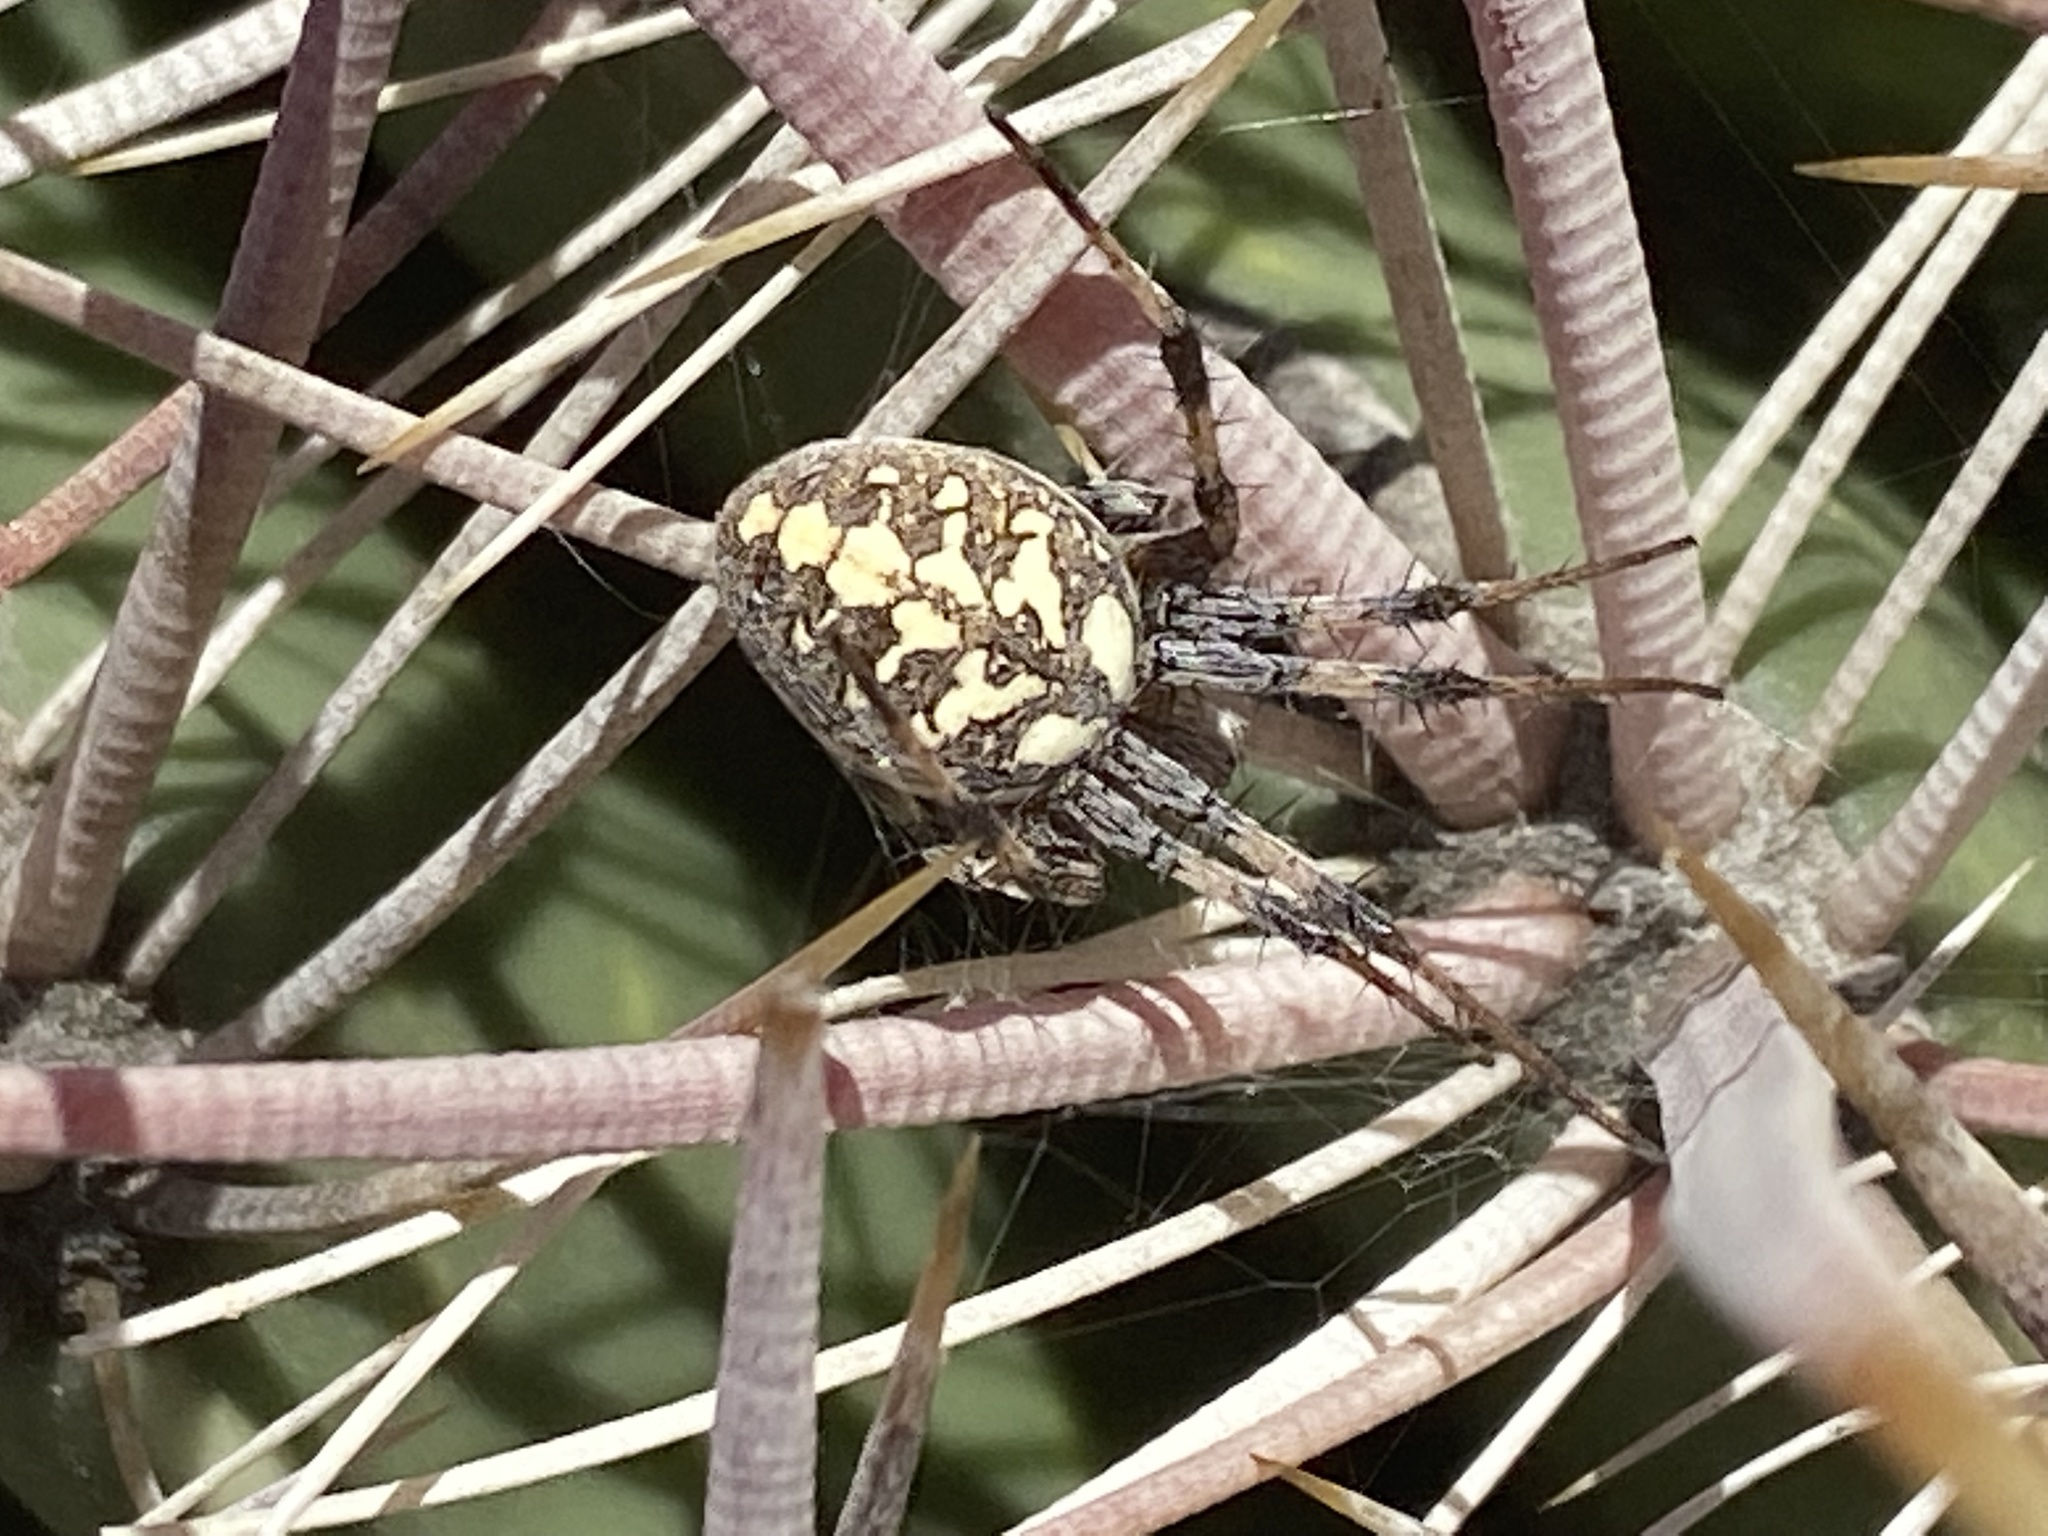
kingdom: Animalia
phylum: Arthropoda
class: Arachnida
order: Araneae
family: Araneidae
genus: Neoscona
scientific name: Neoscona oaxacensis
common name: Orb weavers
